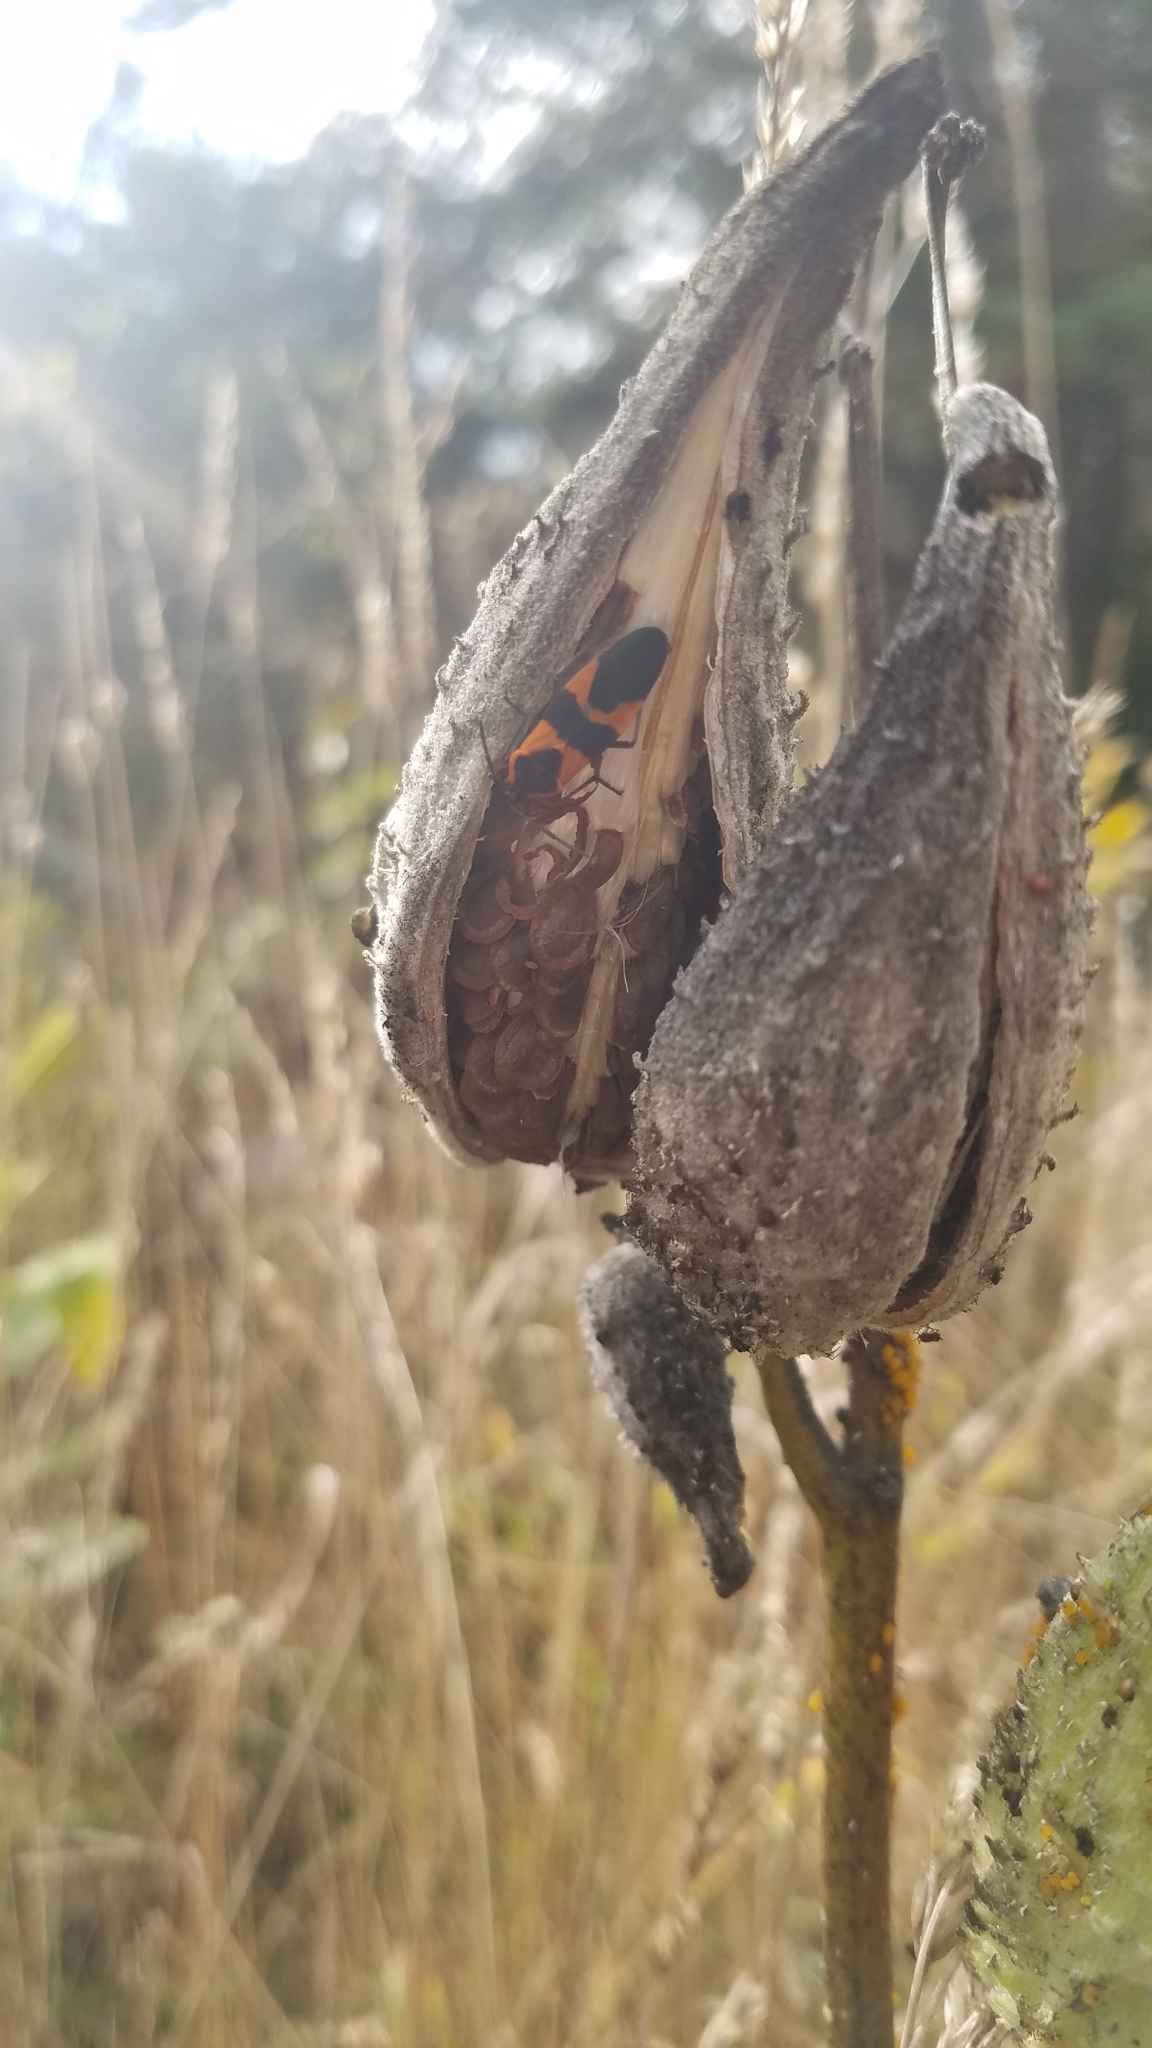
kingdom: Animalia
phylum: Arthropoda
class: Insecta
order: Hemiptera
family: Lygaeidae
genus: Oncopeltus
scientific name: Oncopeltus fasciatus
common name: Large milkweed bug
